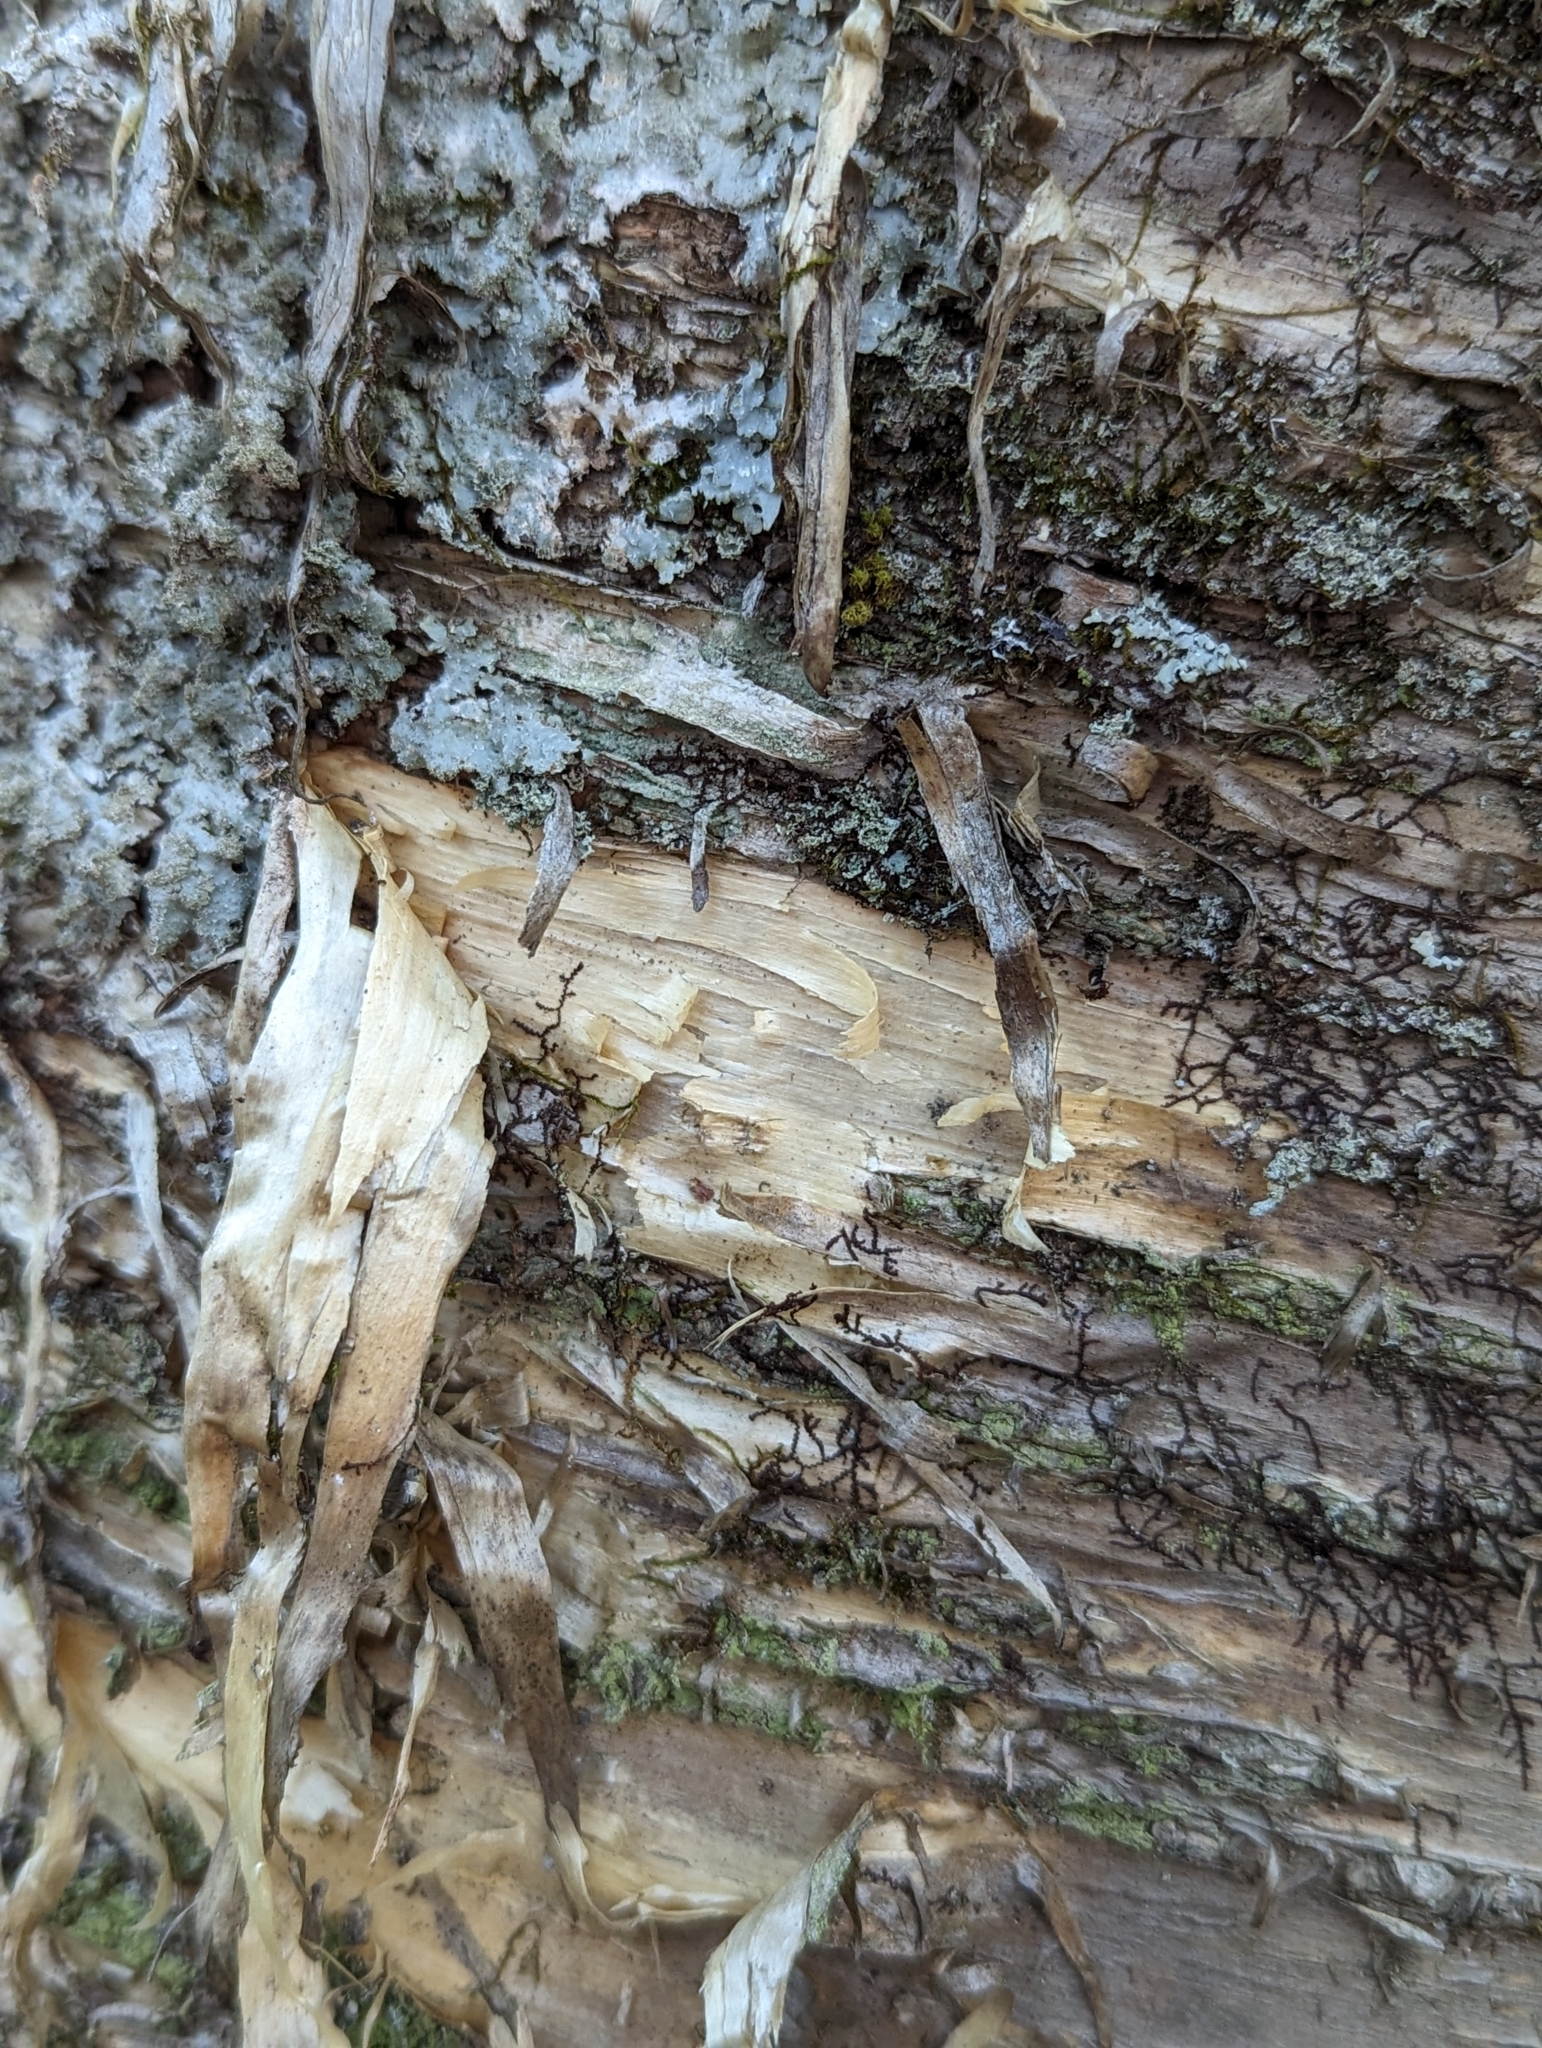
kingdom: Plantae
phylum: Tracheophyta
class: Magnoliopsida
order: Fagales
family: Betulaceae
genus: Betula
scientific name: Betula alleghaniensis
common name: Yellow birch
